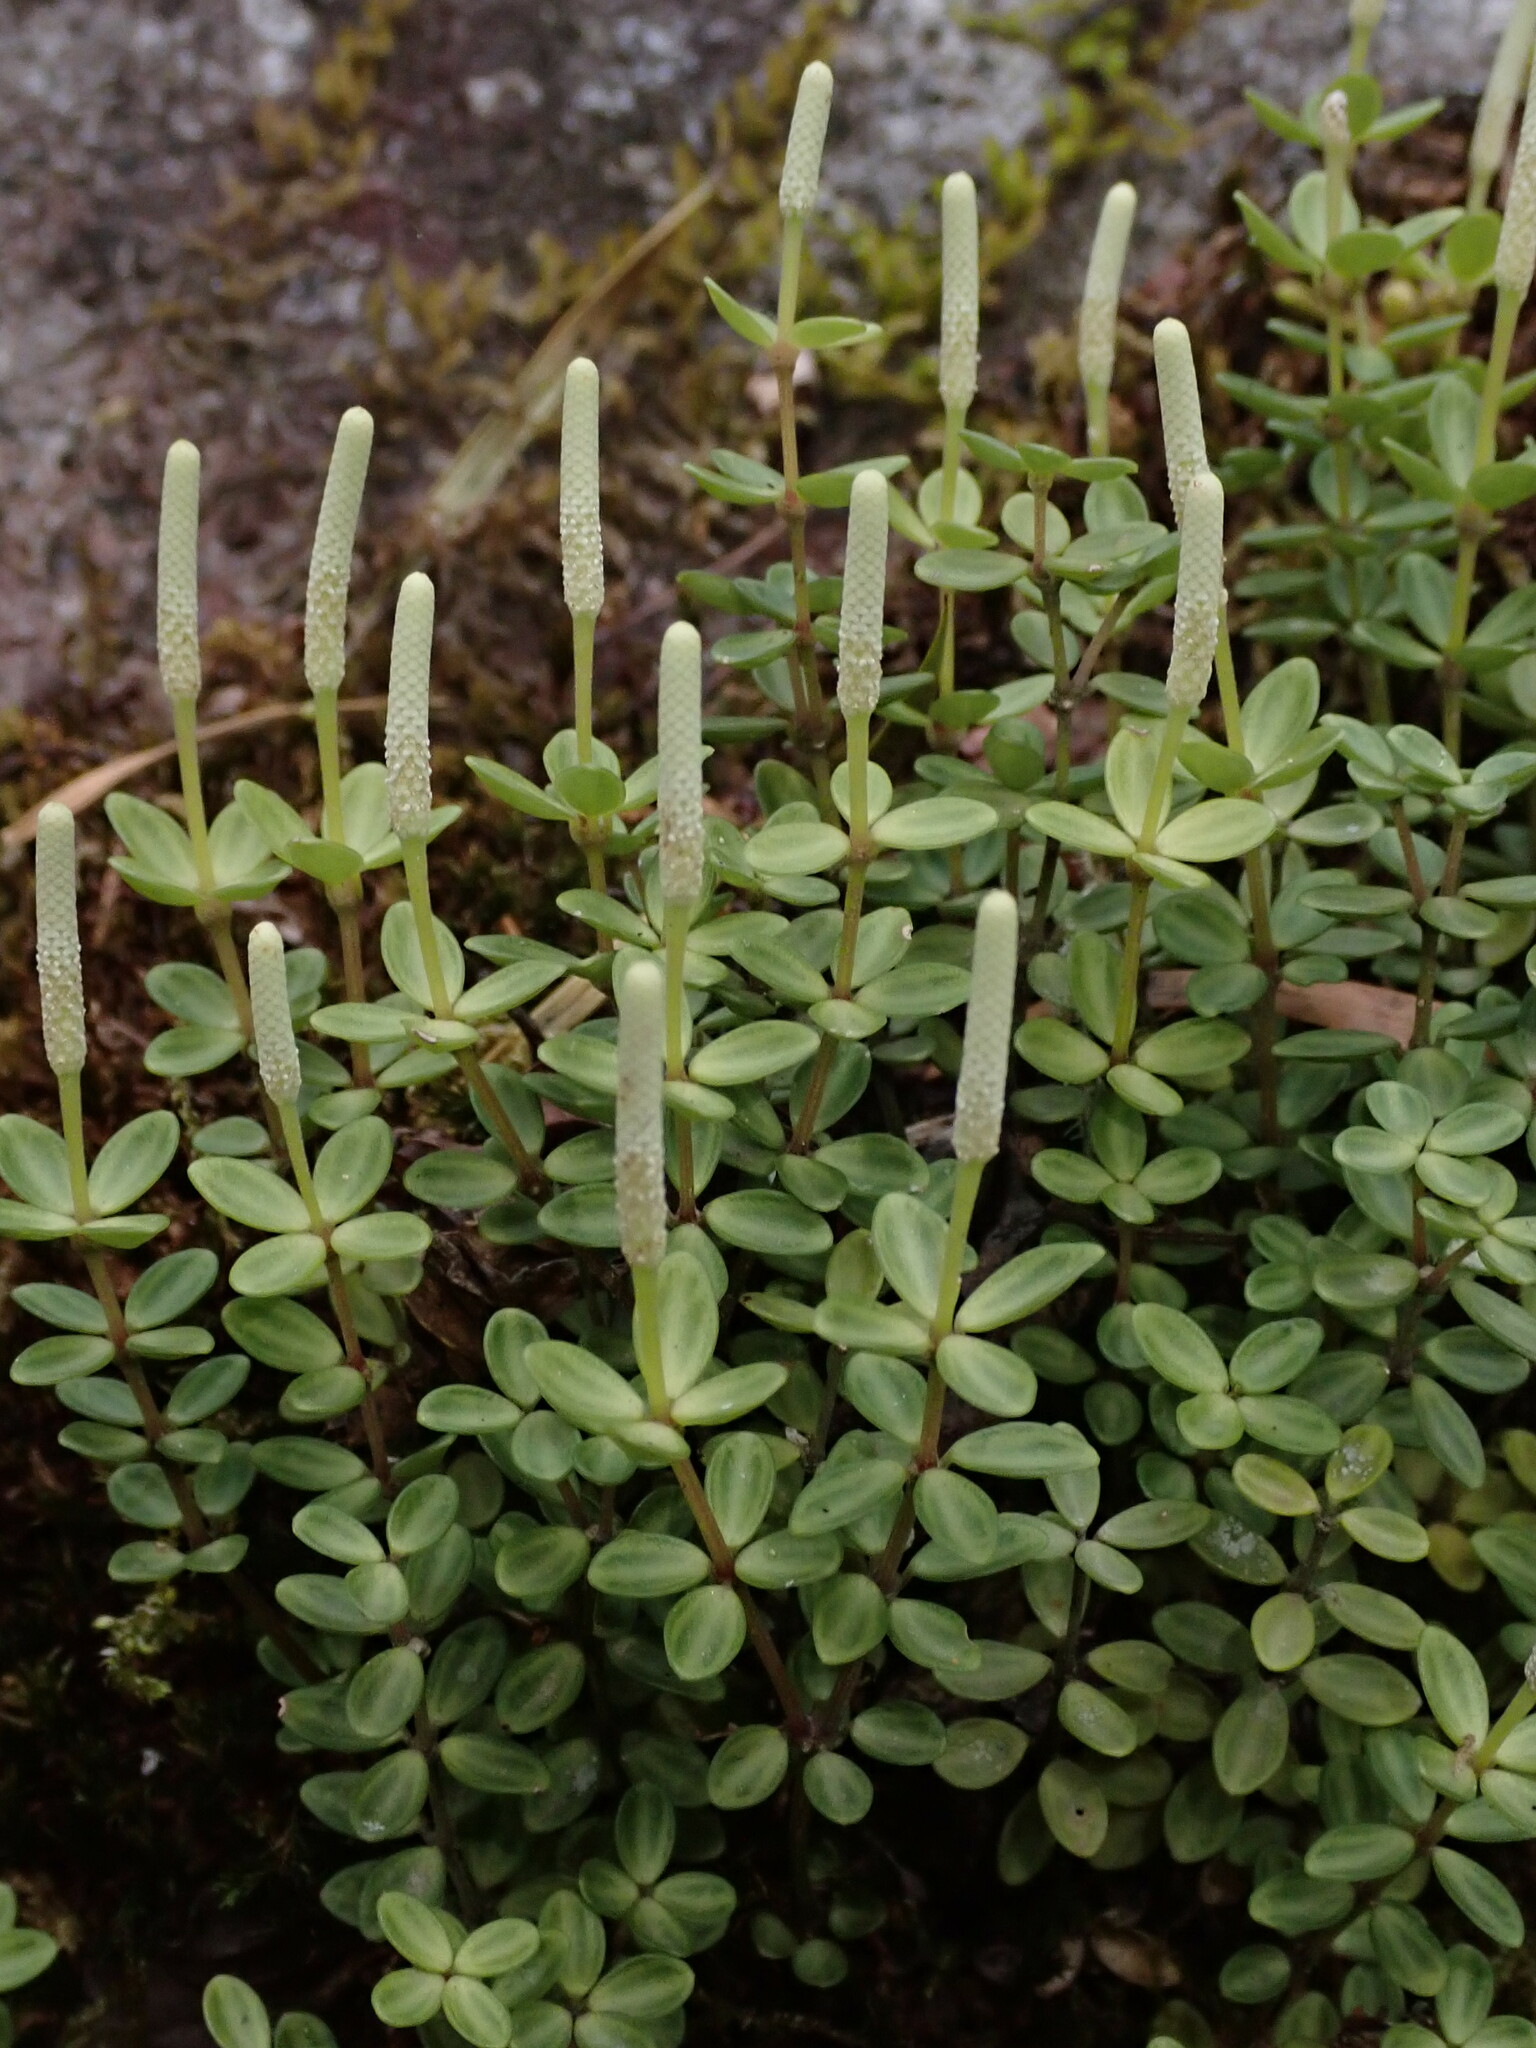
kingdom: Plantae
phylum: Tracheophyta
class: Magnoliopsida
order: Piperales
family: Piperaceae
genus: Peperomia
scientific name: Peperomia tetraphylla
